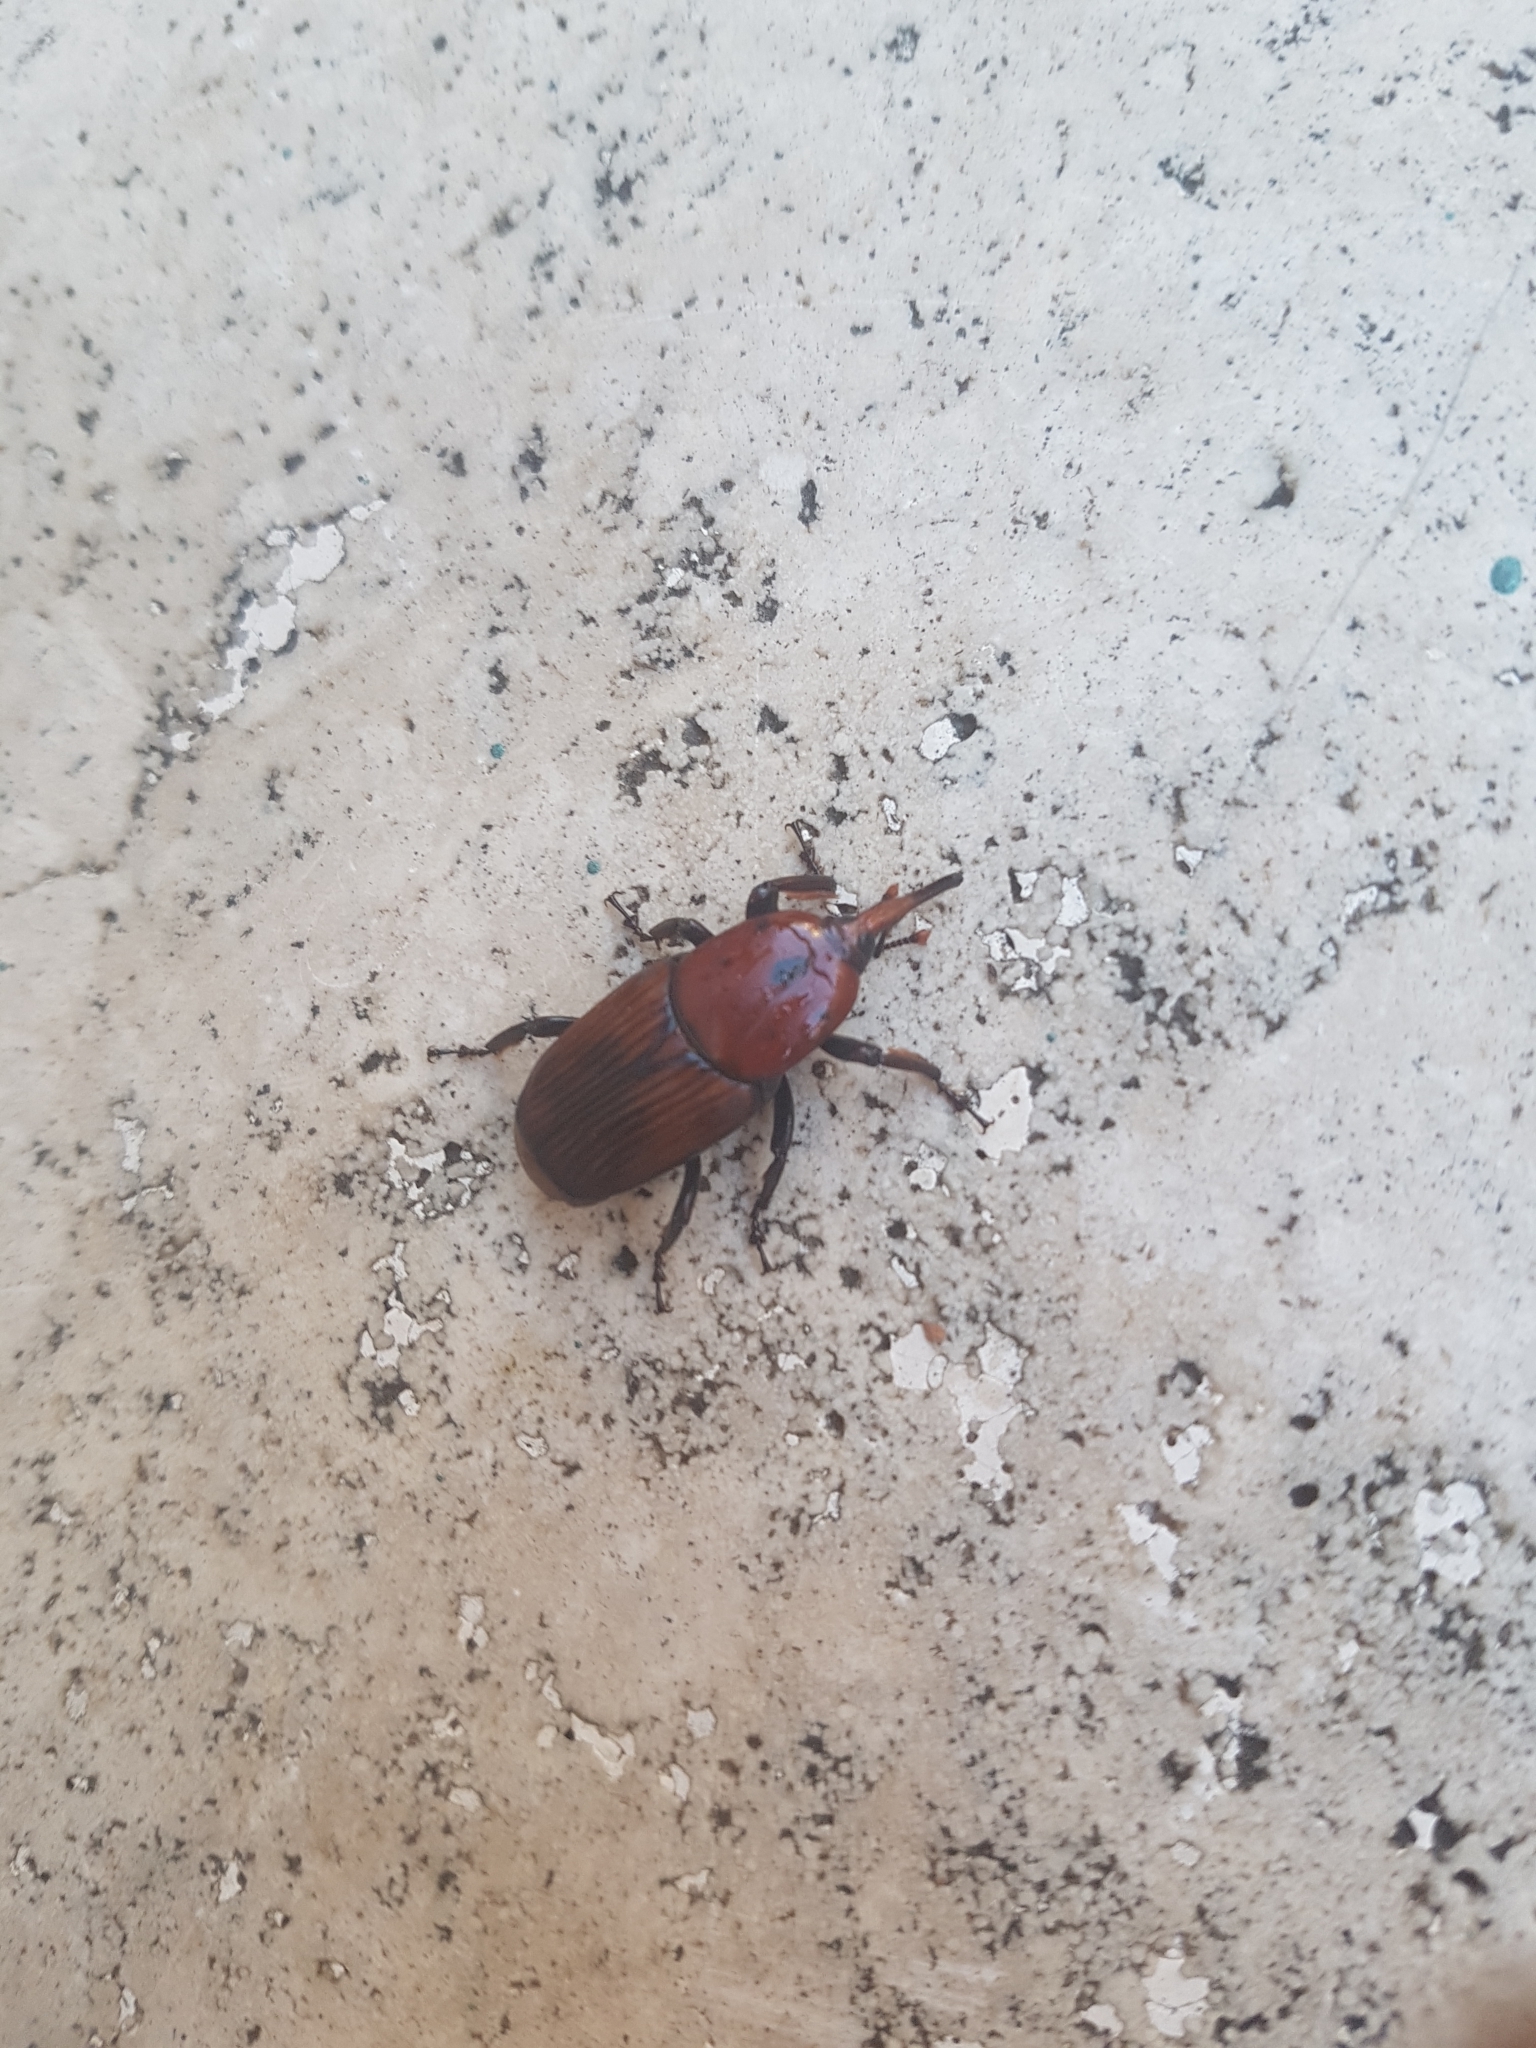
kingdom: Animalia
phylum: Arthropoda
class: Insecta
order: Coleoptera
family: Dryophthoridae
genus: Rhynchophorus
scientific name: Rhynchophorus ferrugineus
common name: Red palm weevil
